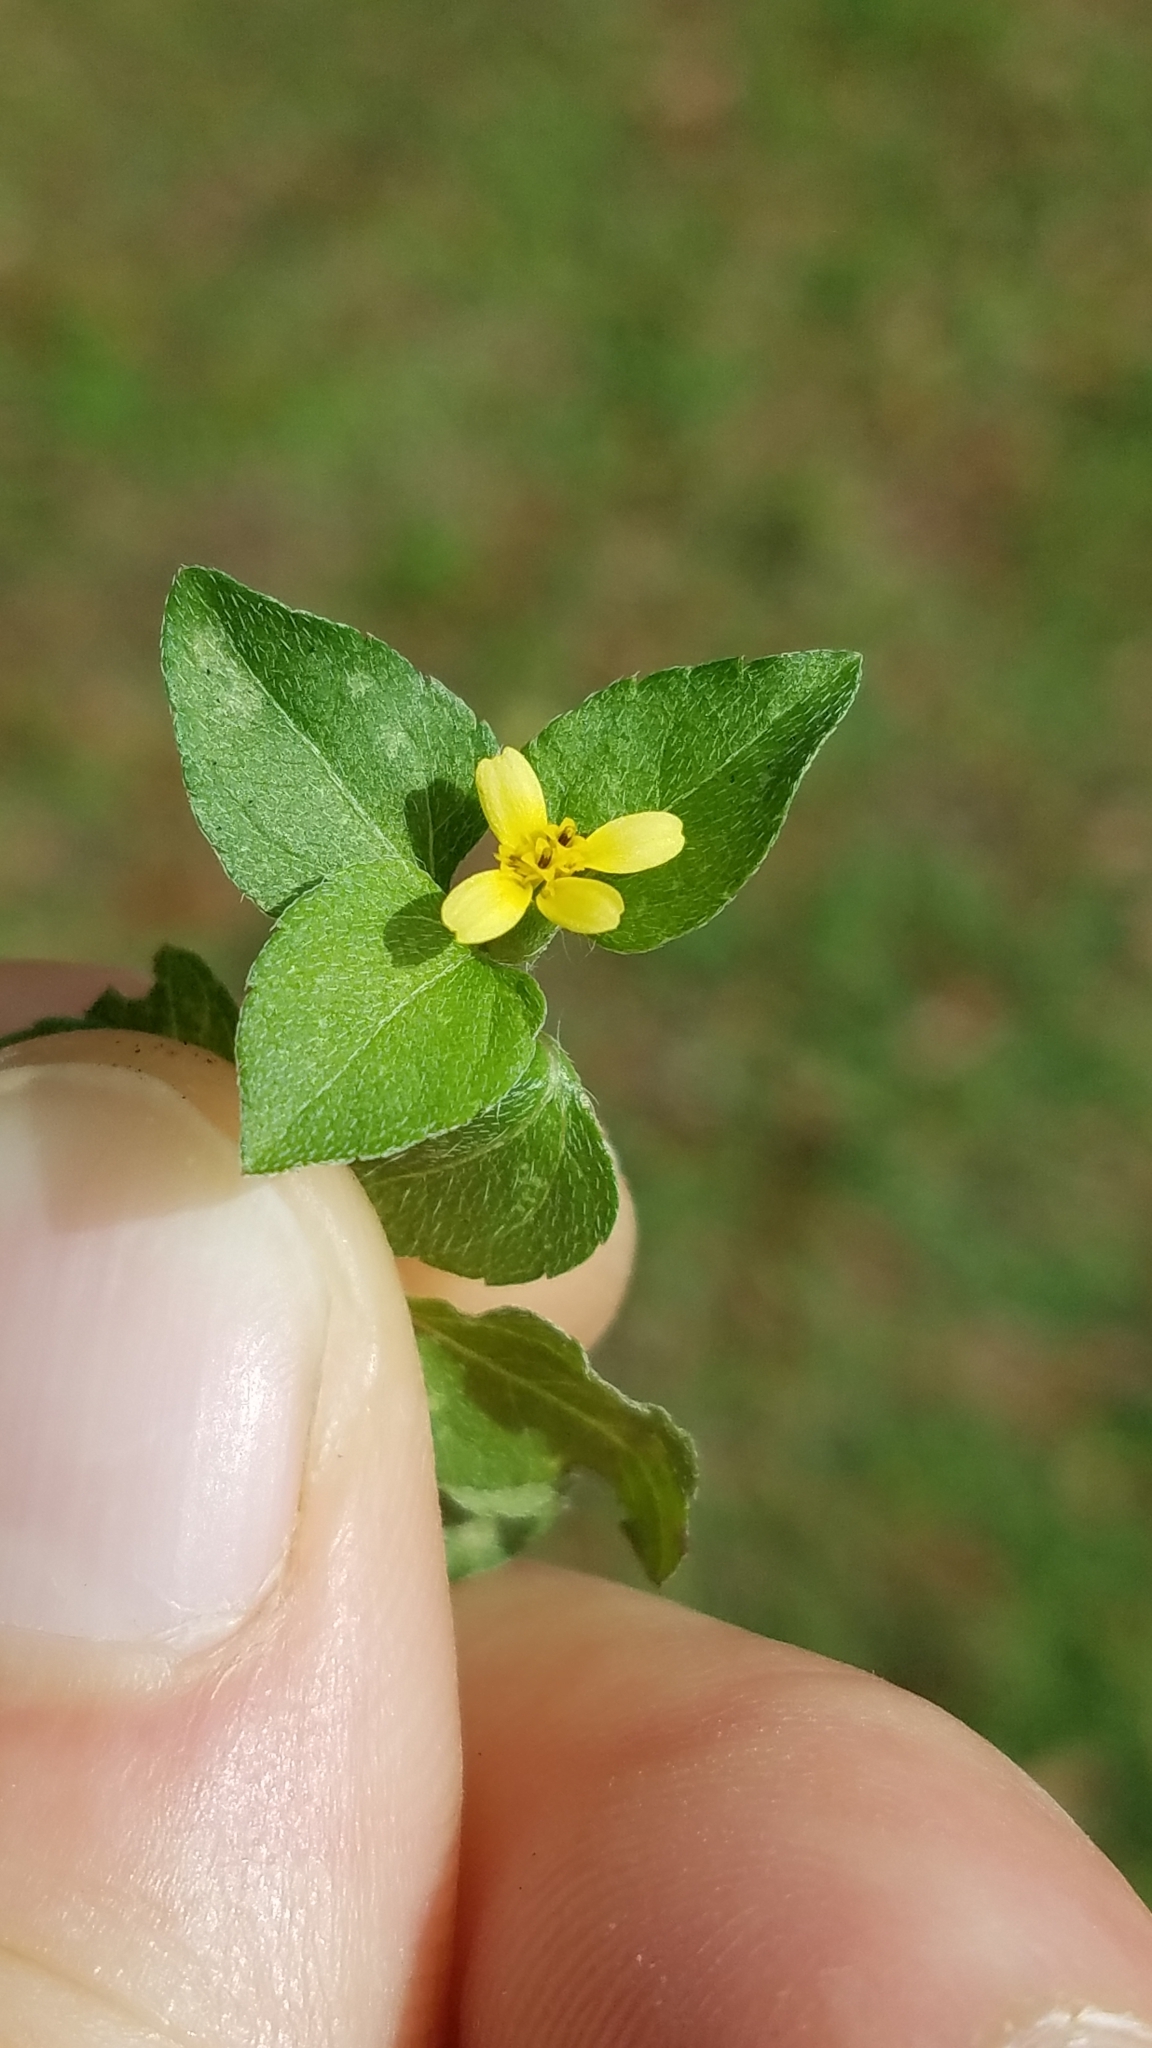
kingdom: Plantae
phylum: Tracheophyta
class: Magnoliopsida
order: Asterales
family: Asteraceae
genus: Calyptocarpus
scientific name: Calyptocarpus vialis
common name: Straggler daisy
